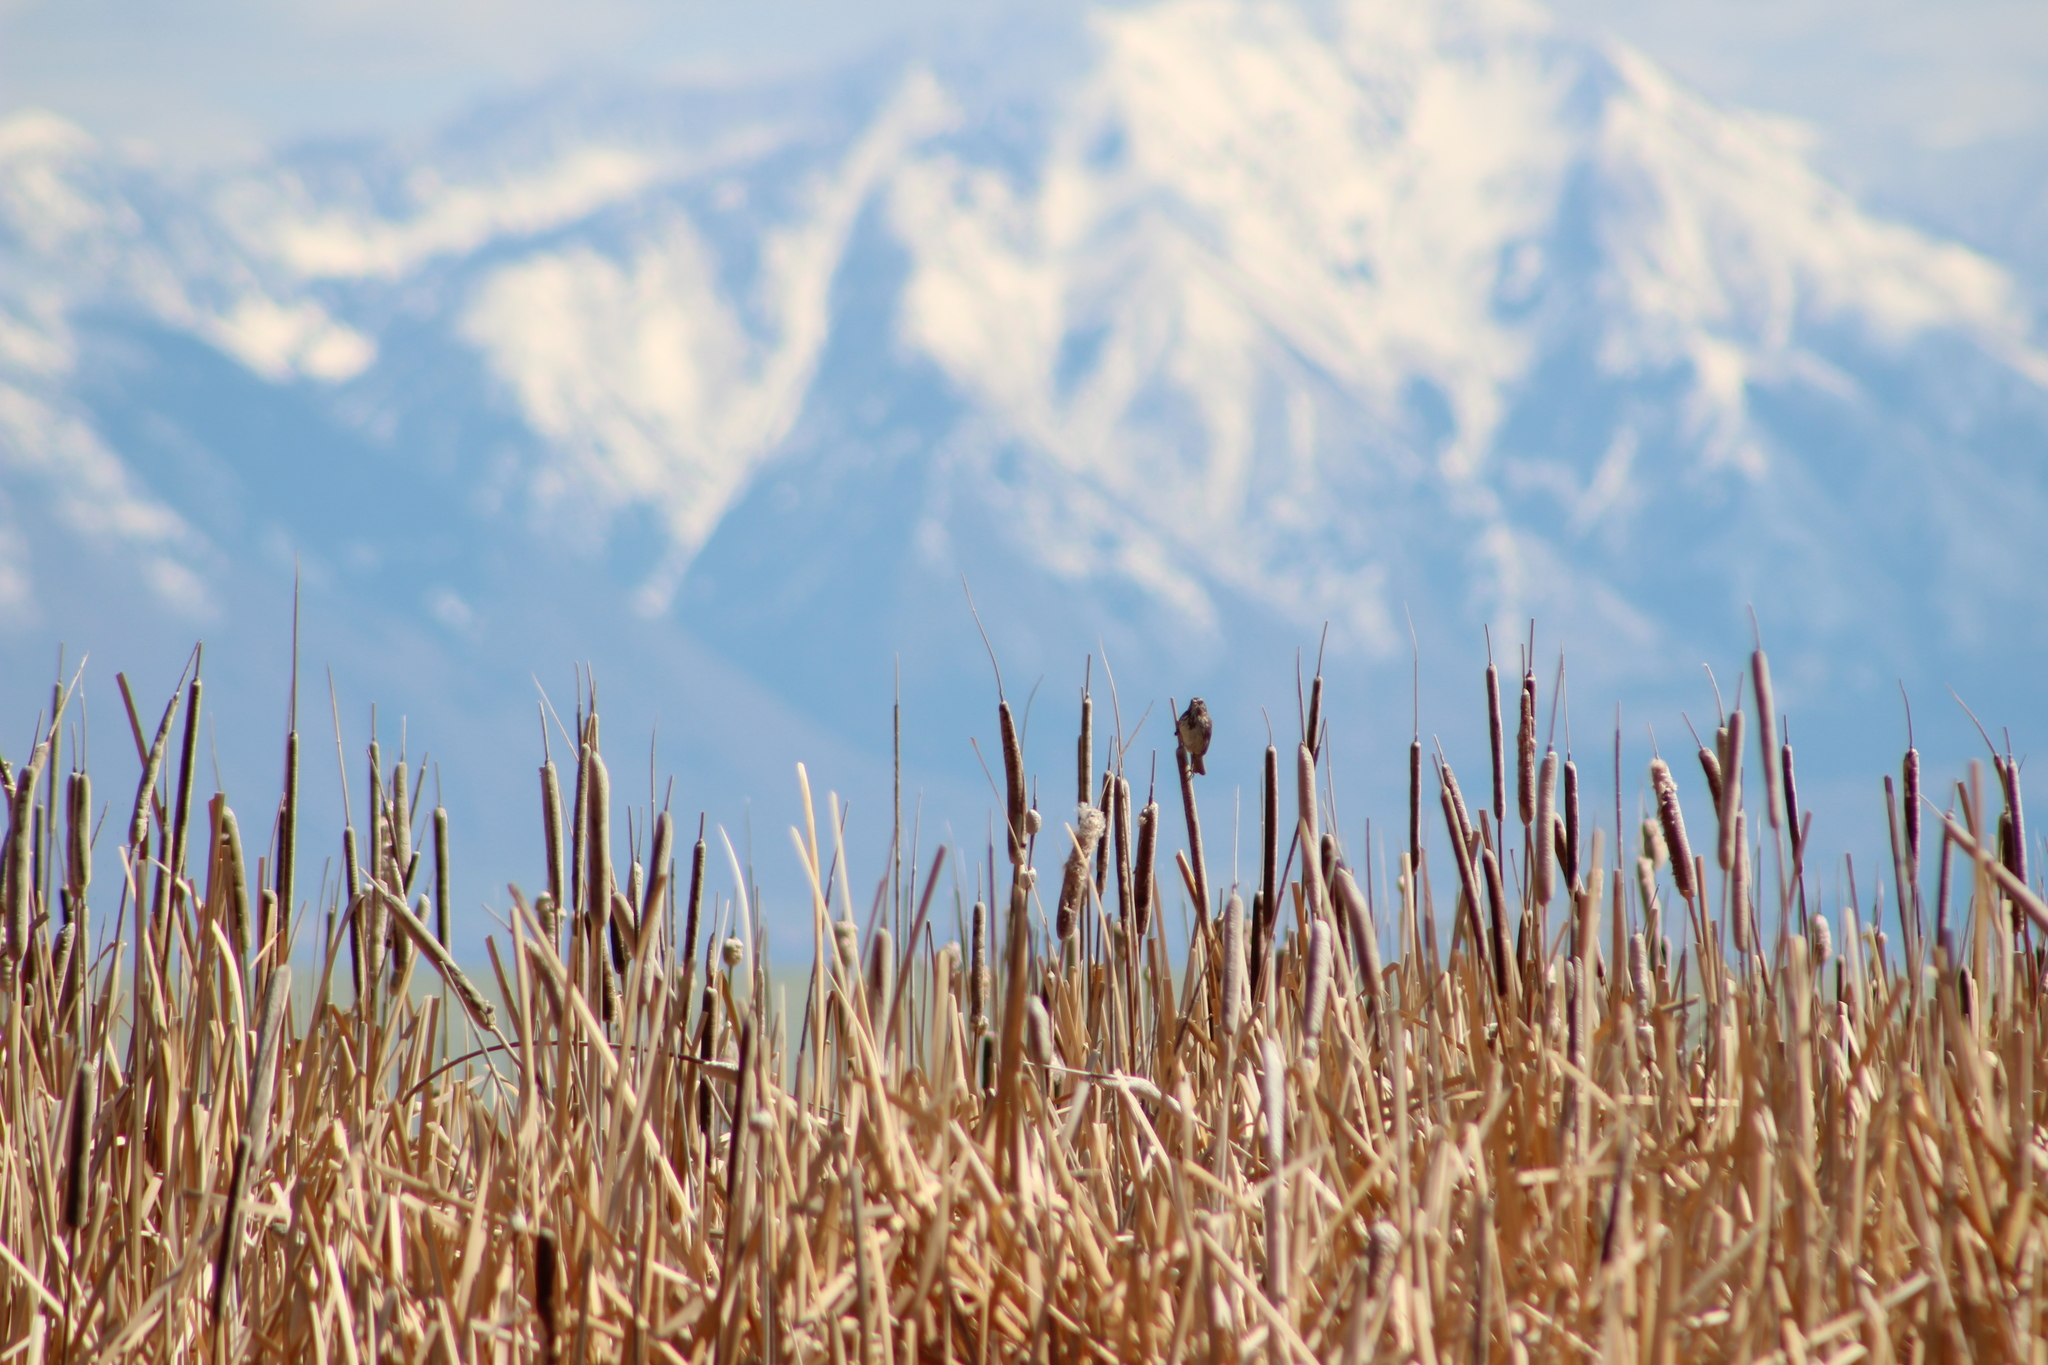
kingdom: Animalia
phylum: Chordata
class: Aves
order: Passeriformes
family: Passerellidae
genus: Melospiza
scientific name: Melospiza melodia
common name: Song sparrow
